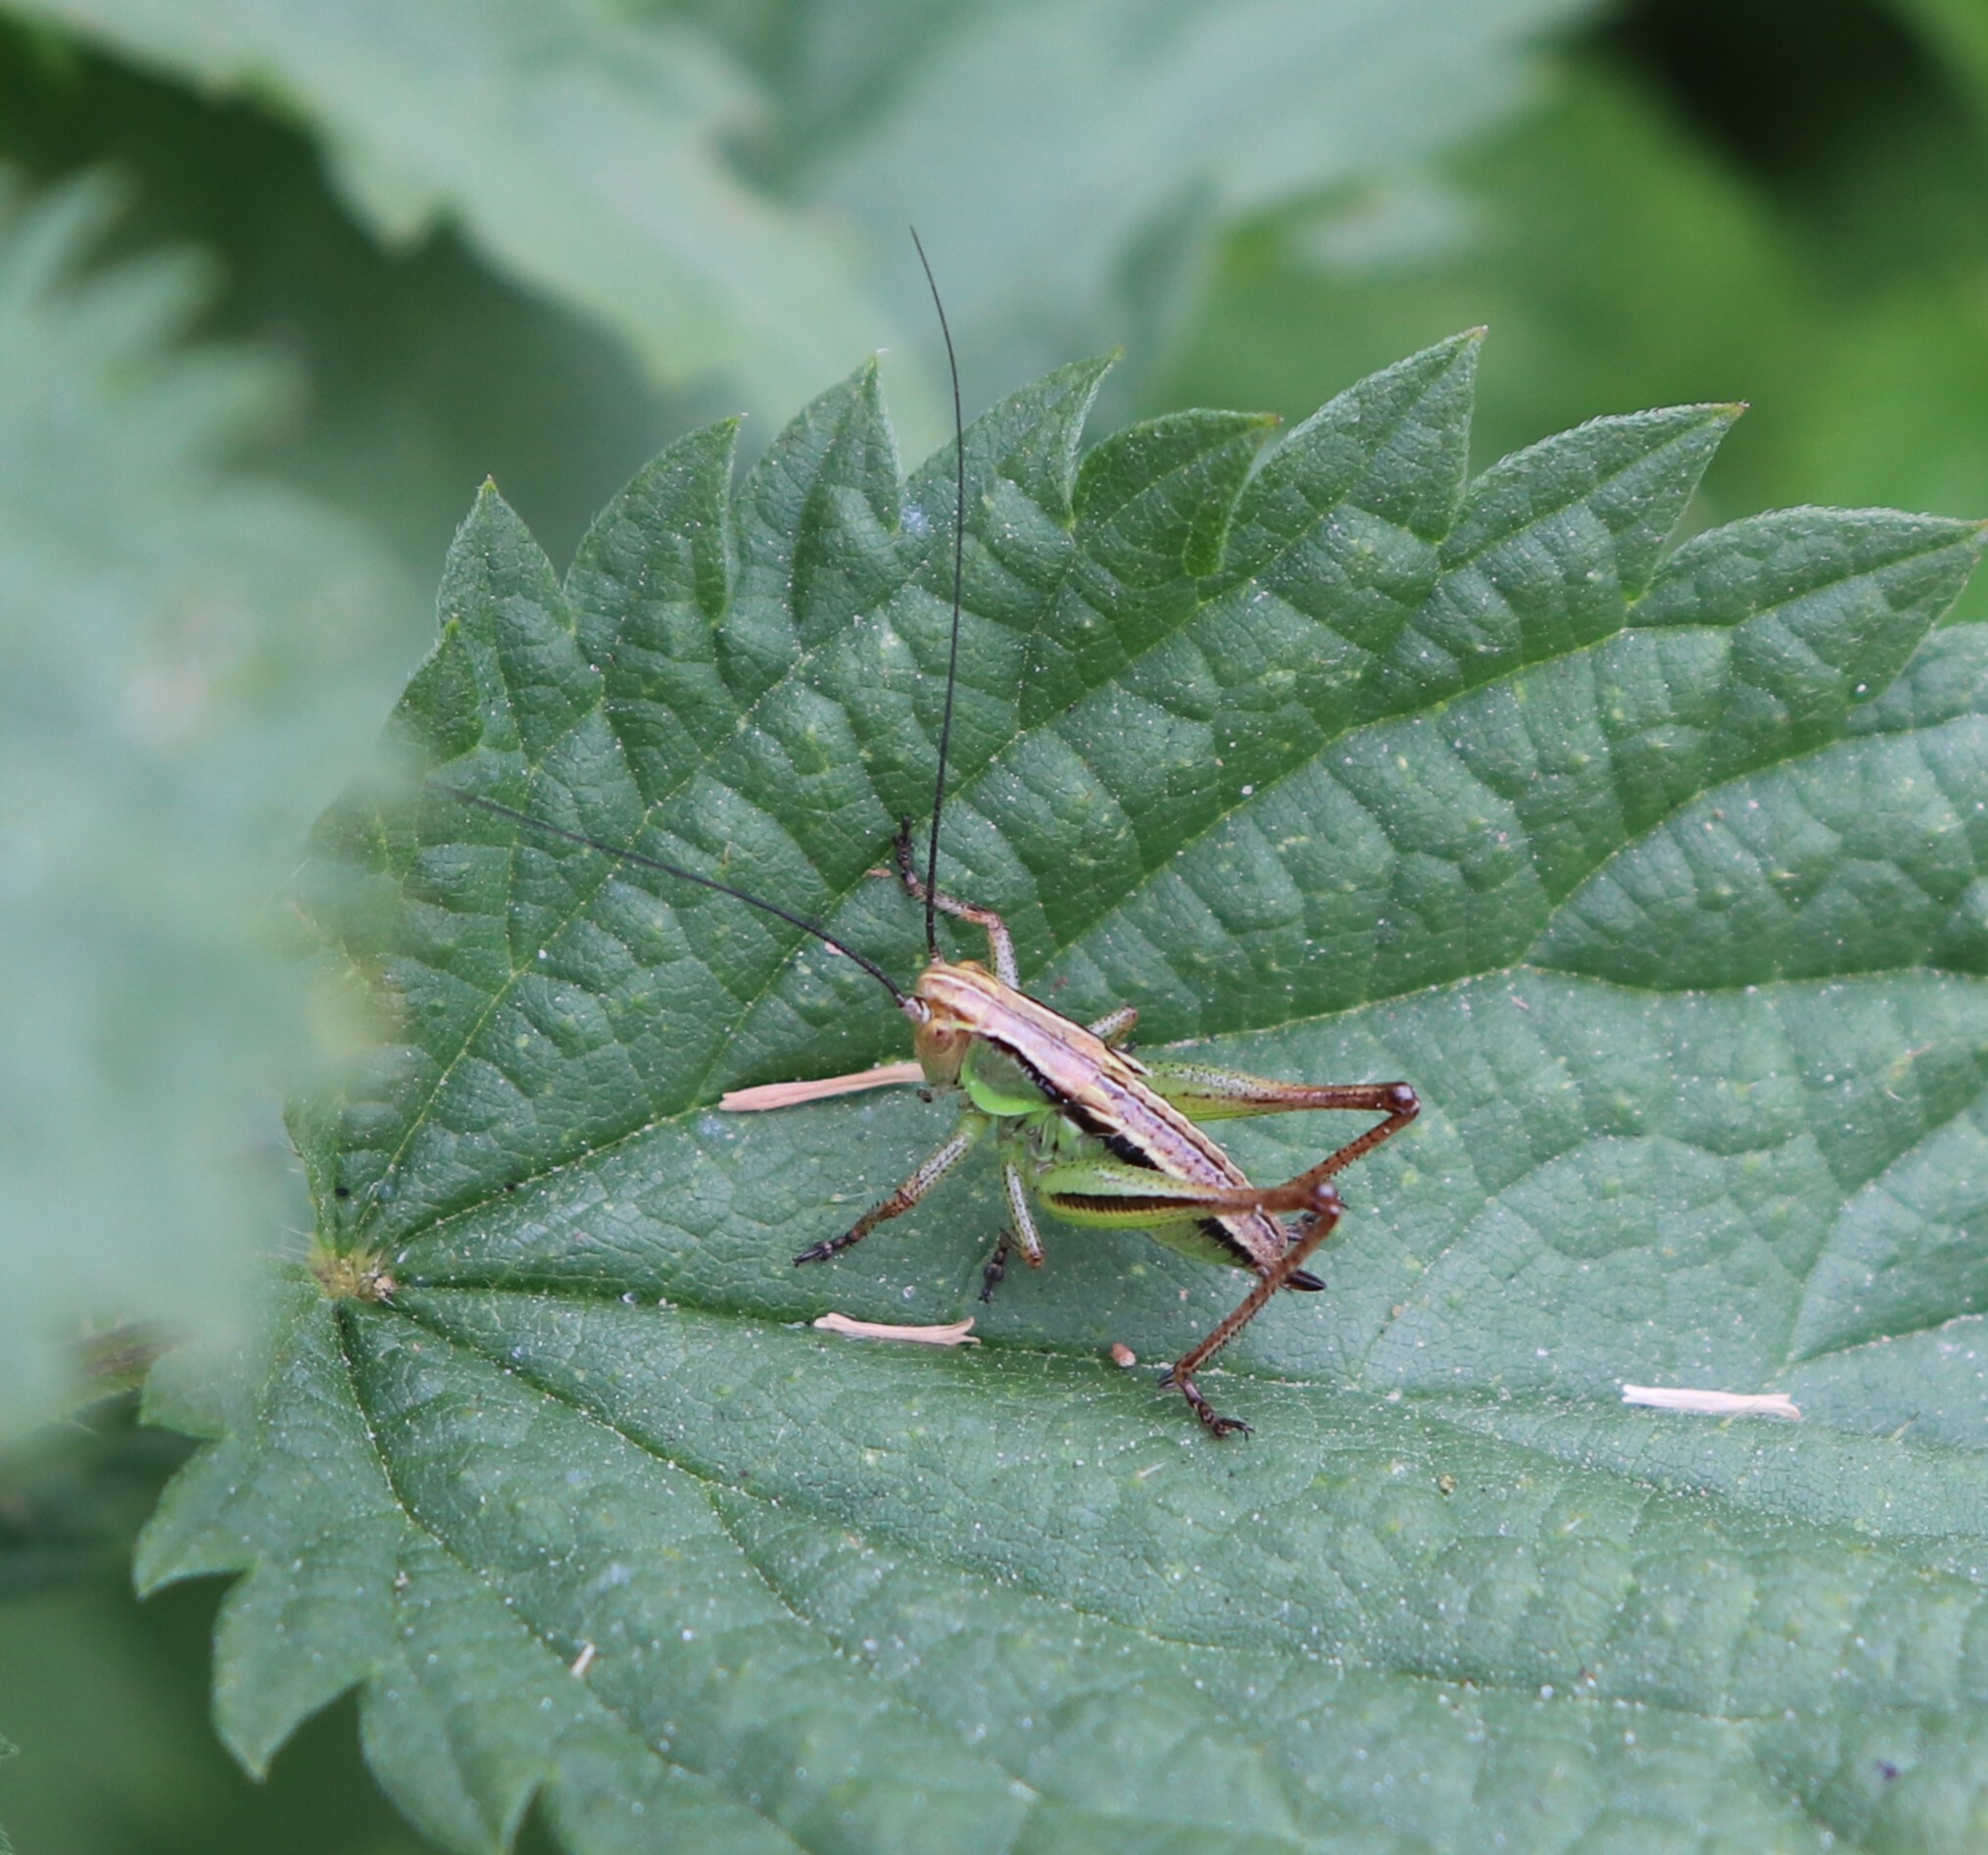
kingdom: Animalia
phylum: Arthropoda
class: Insecta
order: Orthoptera
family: Tettigoniidae
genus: Roeseliana
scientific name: Roeseliana roeselii
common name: Roesel's bush cricket
